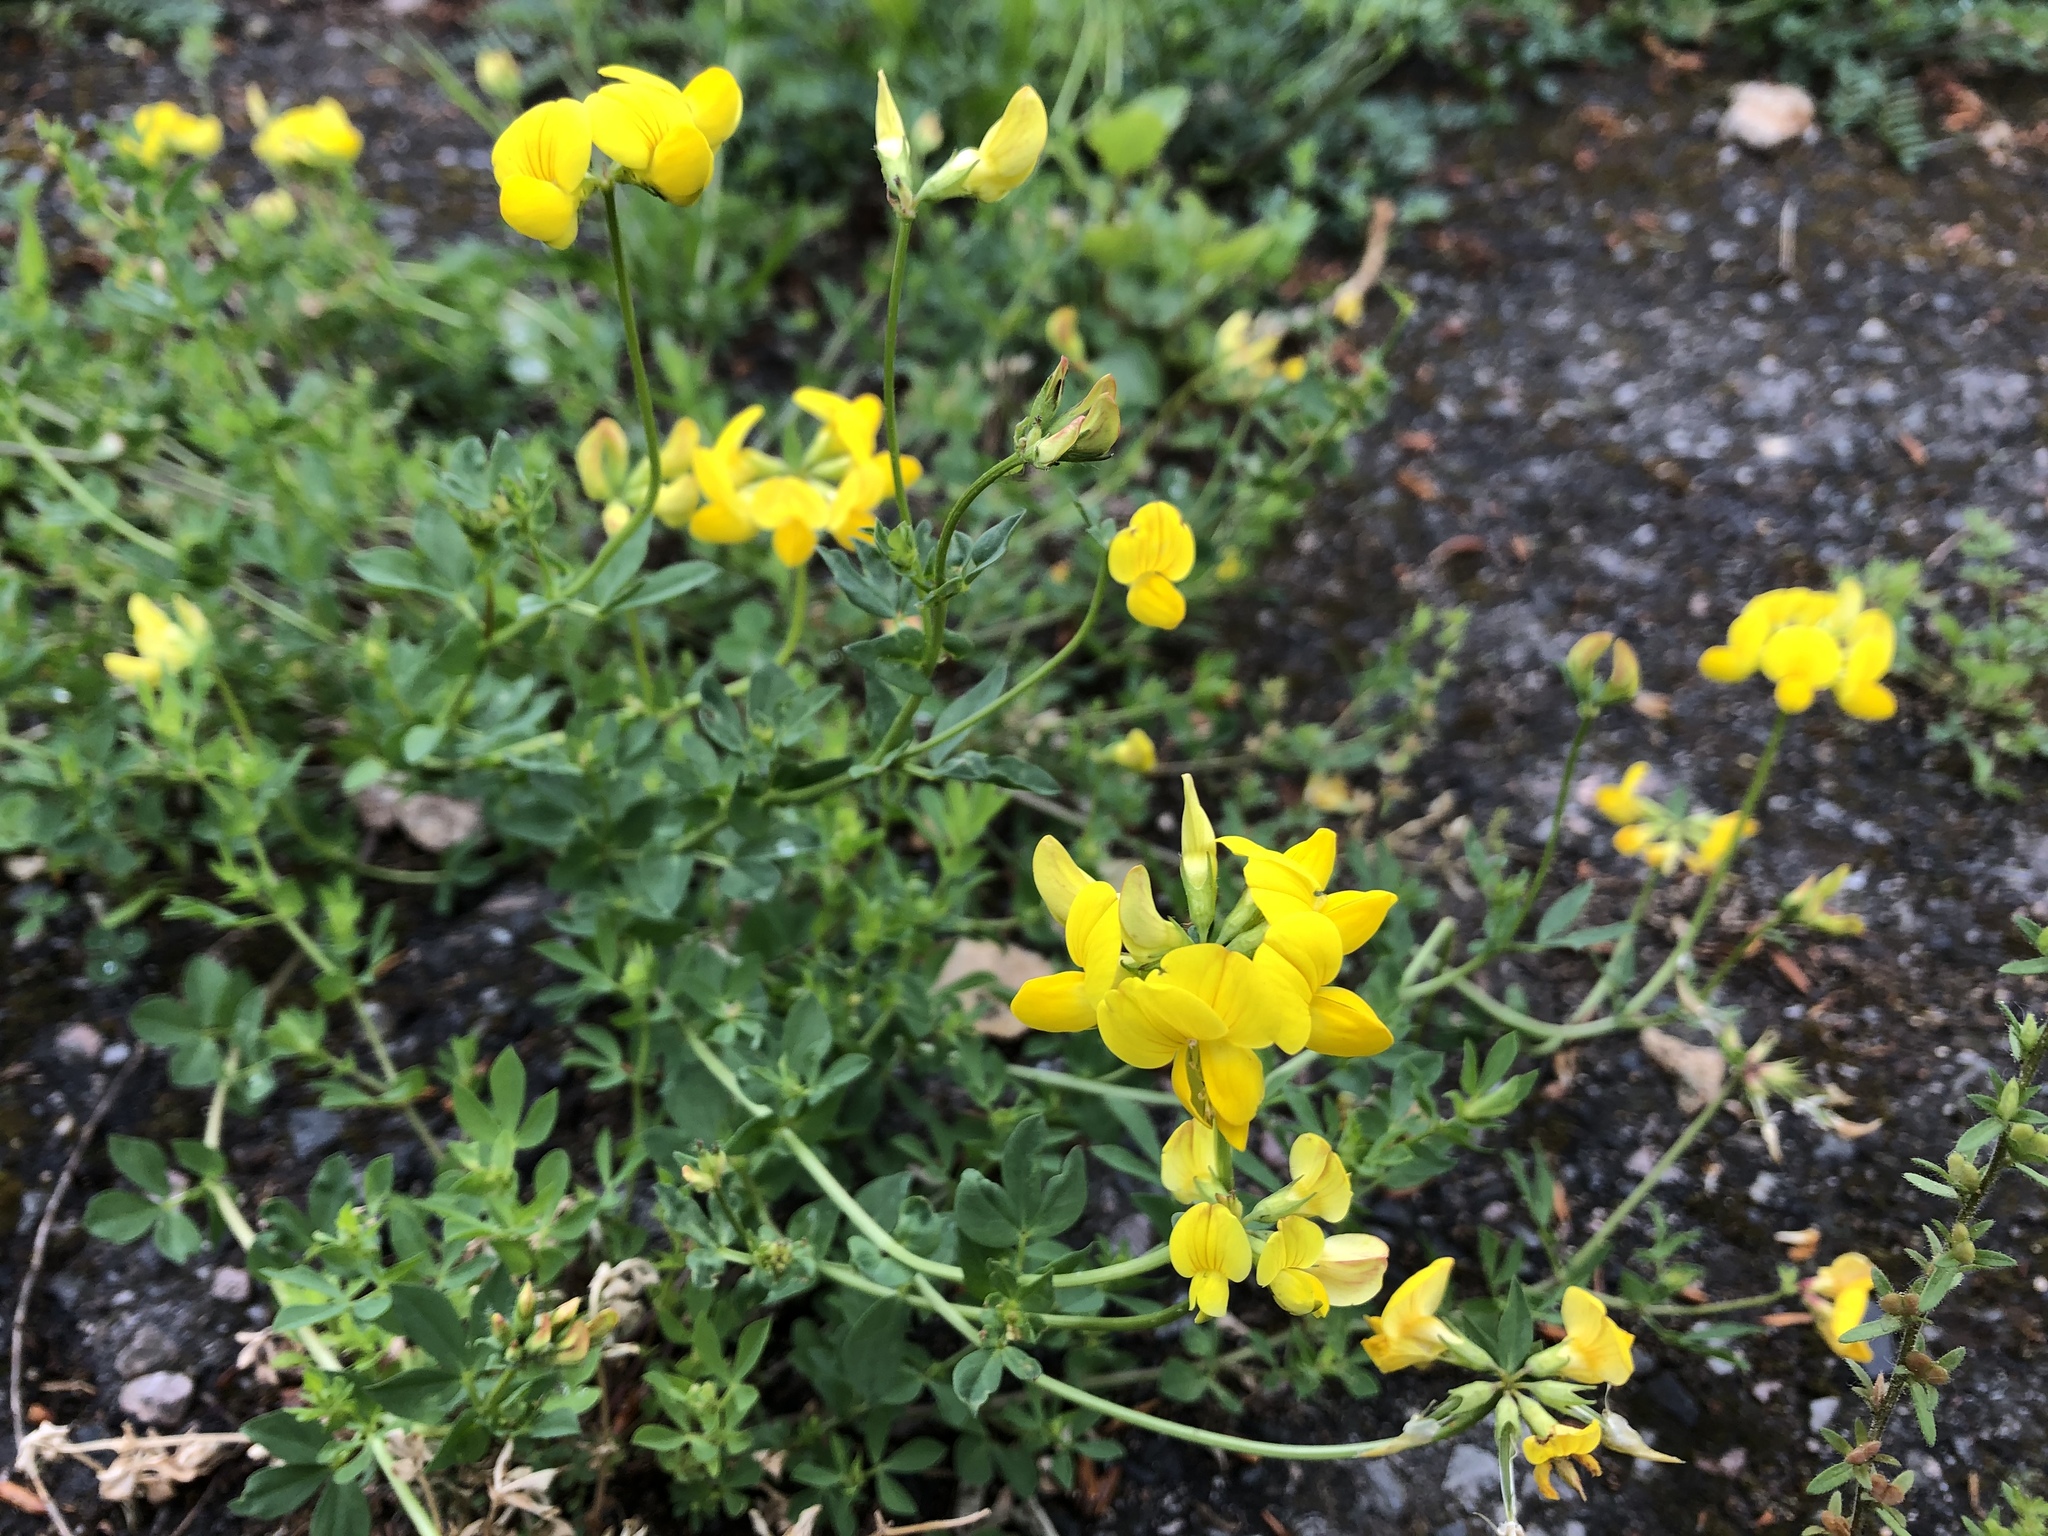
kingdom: Plantae
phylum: Tracheophyta
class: Magnoliopsida
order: Fabales
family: Fabaceae
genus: Lotus
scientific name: Lotus corniculatus
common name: Common bird's-foot-trefoil
